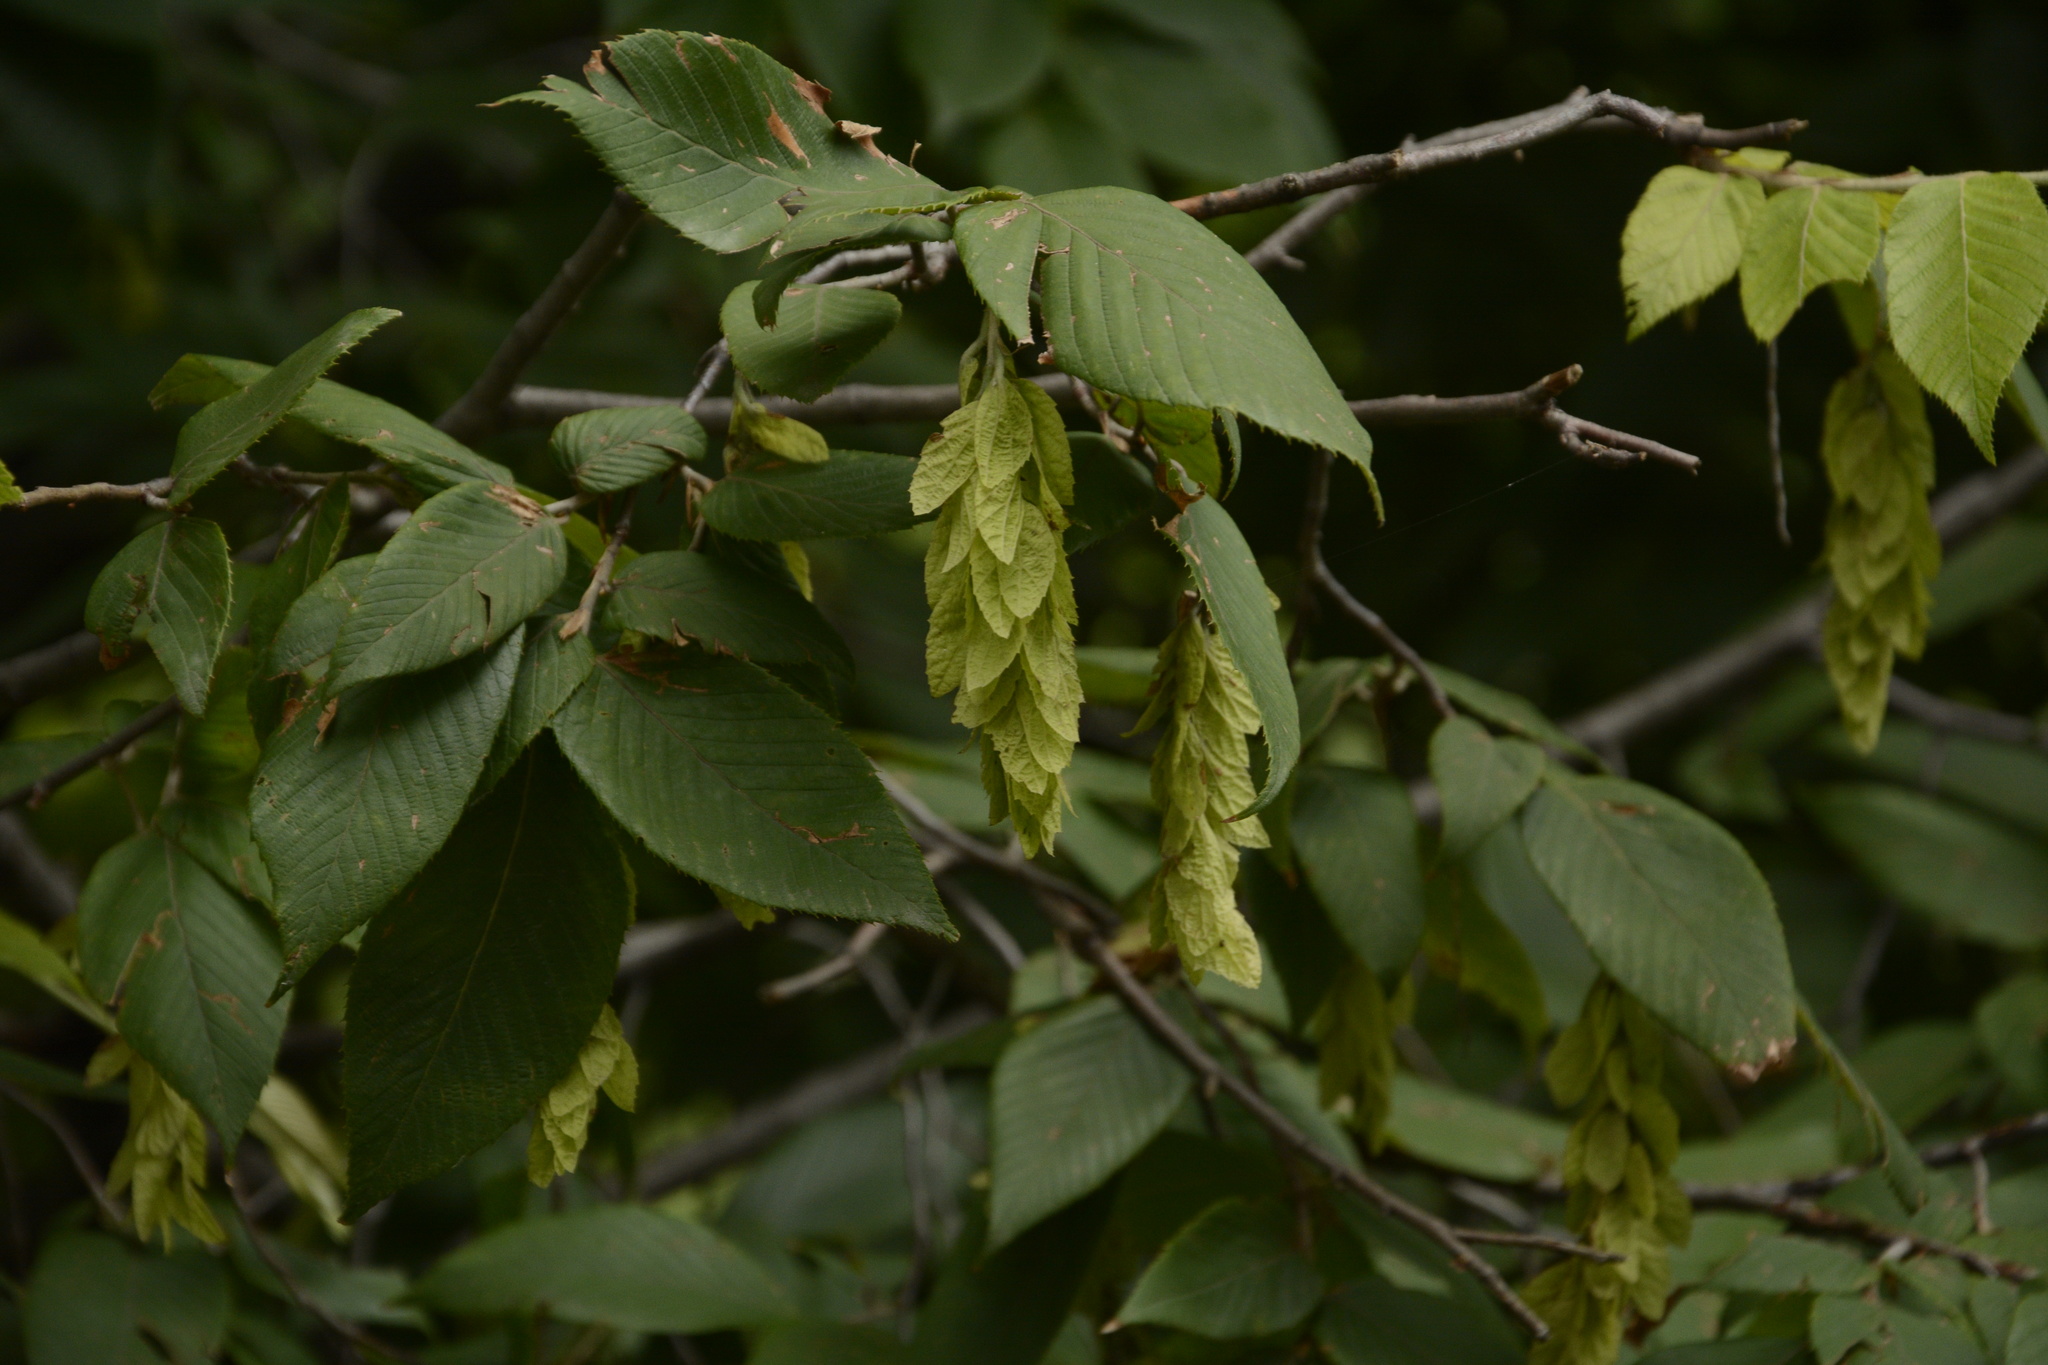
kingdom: Plantae
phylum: Tracheophyta
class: Magnoliopsida
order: Fagales
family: Betulaceae
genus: Carpinus
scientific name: Carpinus faginea
